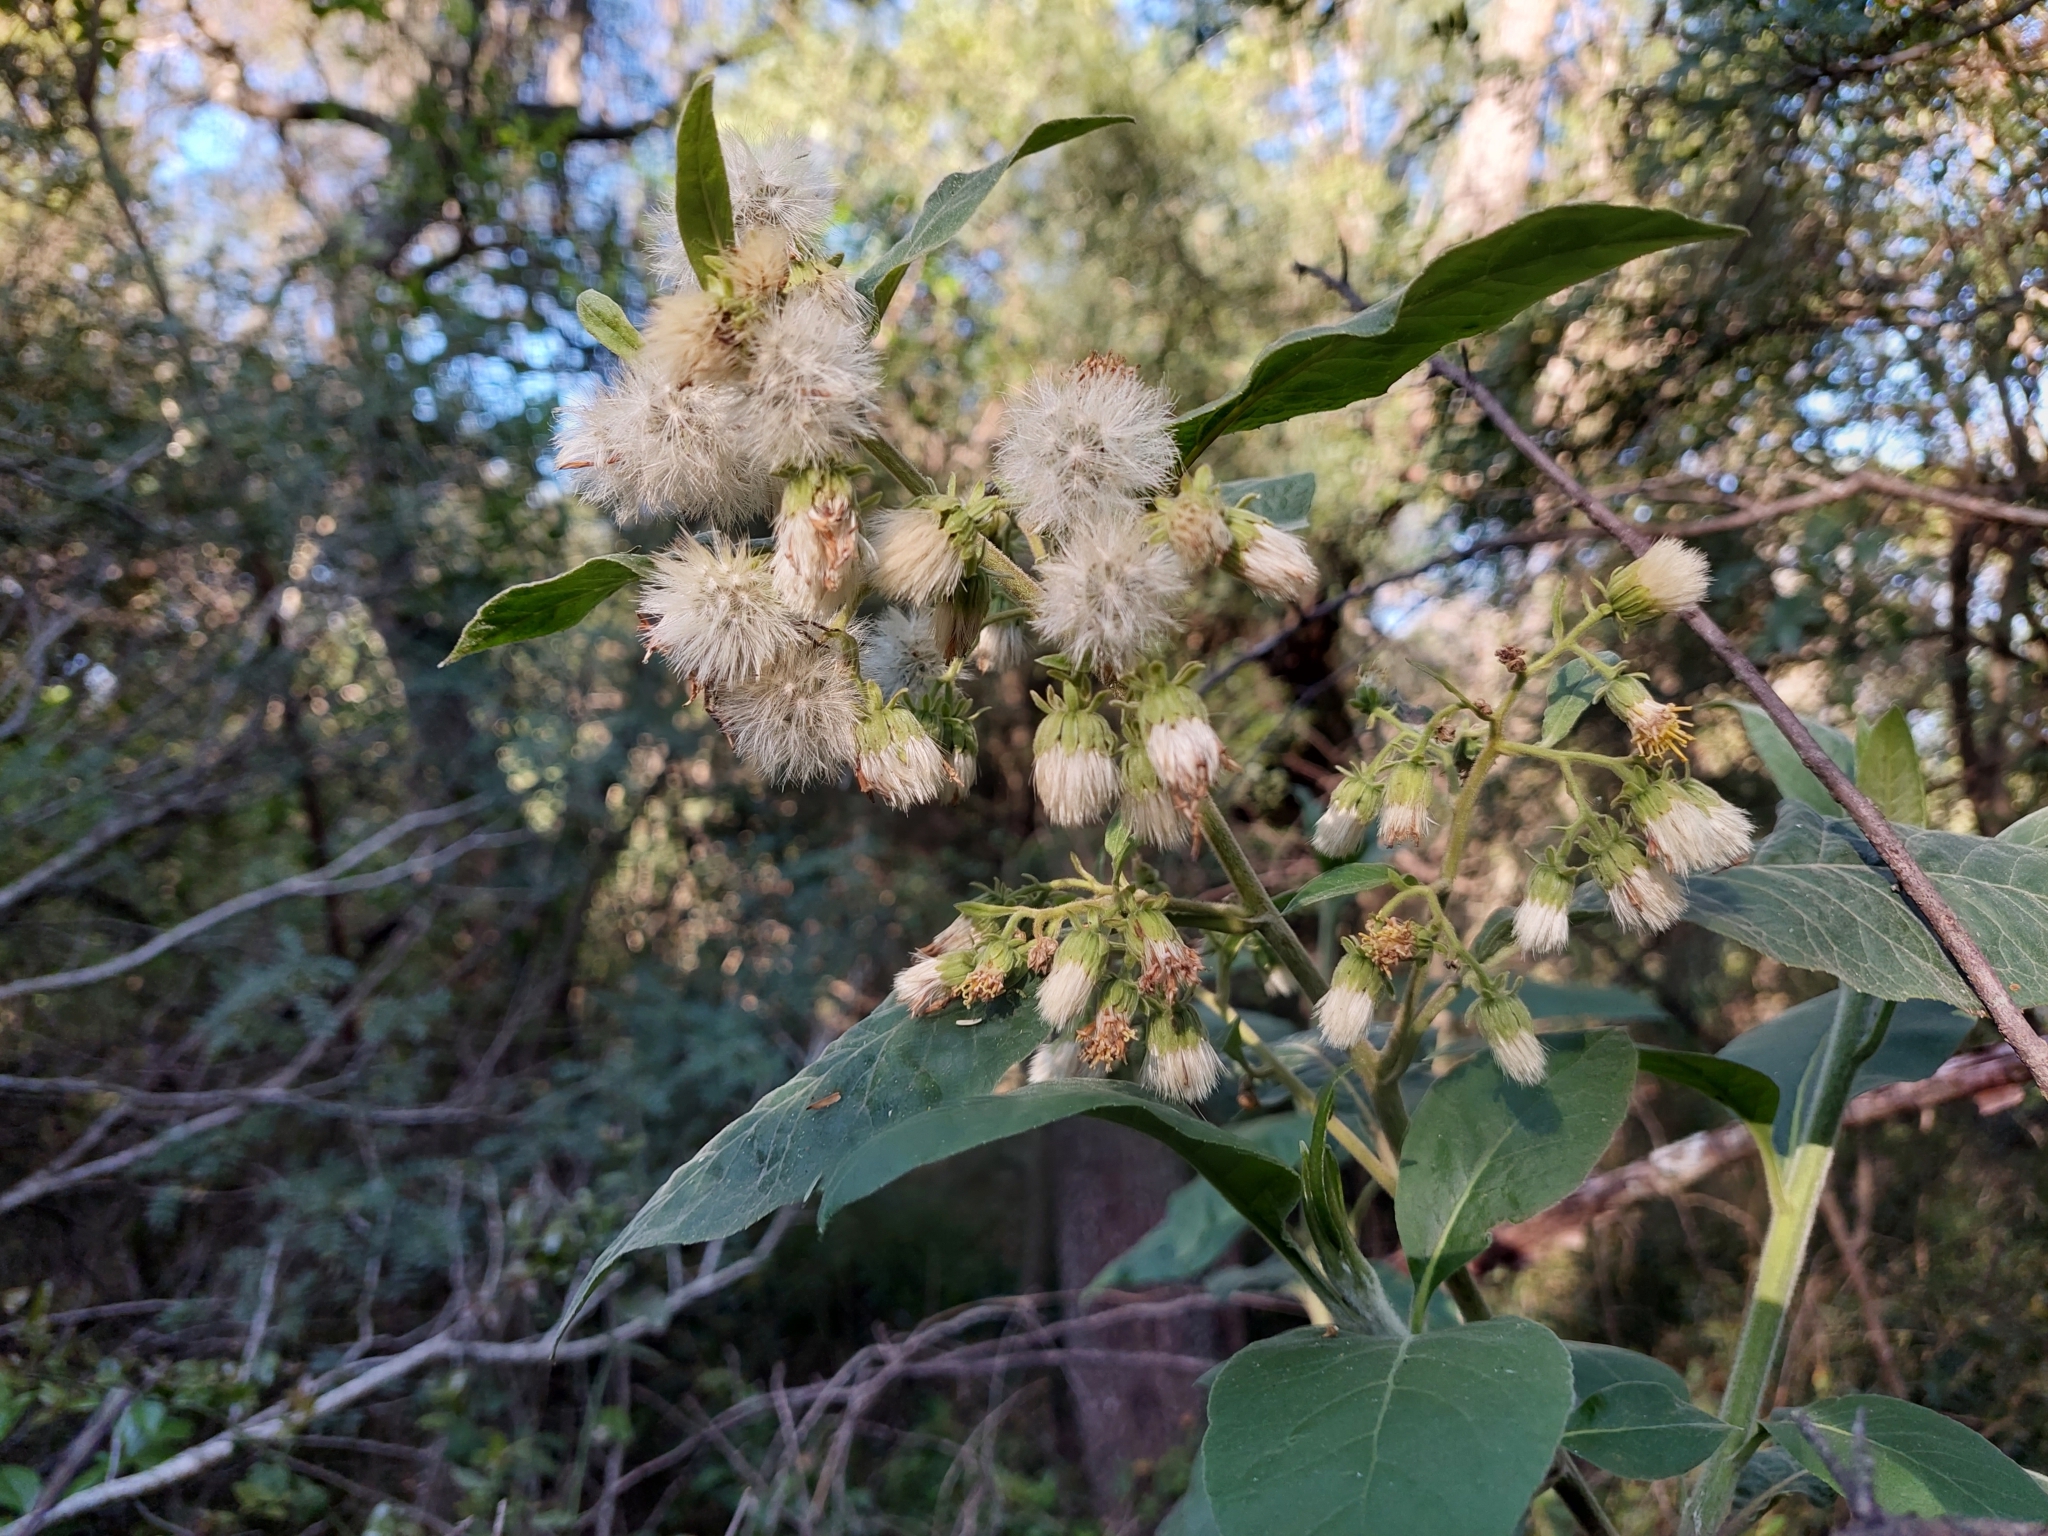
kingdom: Plantae
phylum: Tracheophyta
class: Magnoliopsida
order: Asterales
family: Asteraceae
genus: Trixis
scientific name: Trixis praestans
